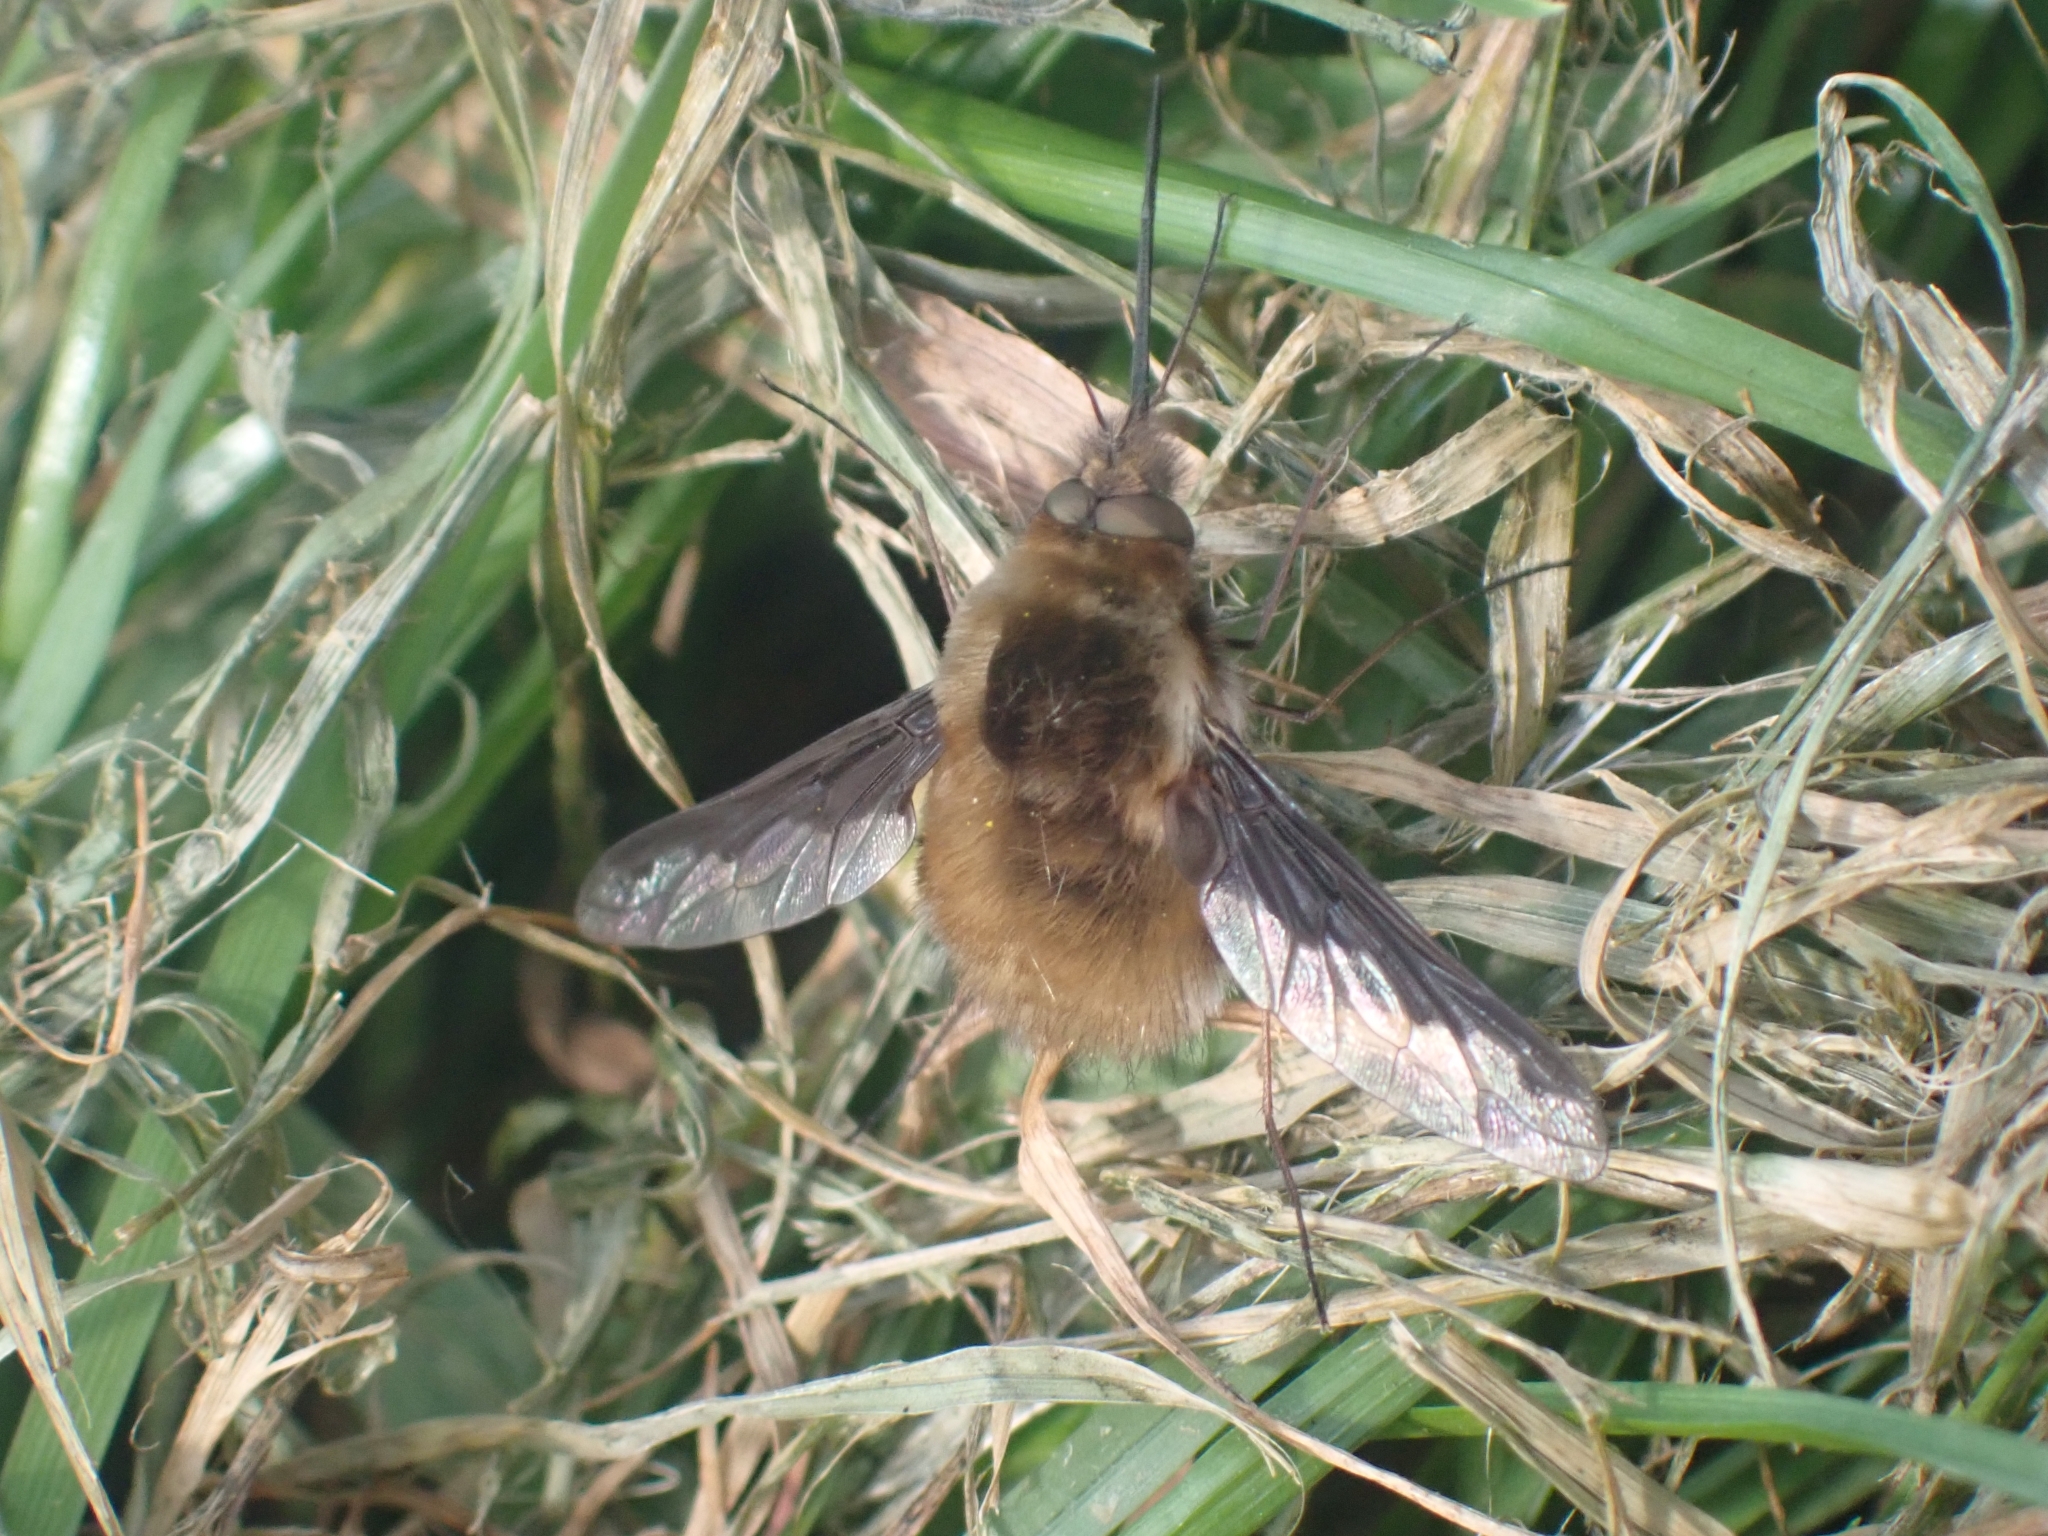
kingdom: Animalia
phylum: Arthropoda
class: Insecta
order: Diptera
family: Bombyliidae
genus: Bombylius
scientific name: Bombylius major
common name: Bee fly
